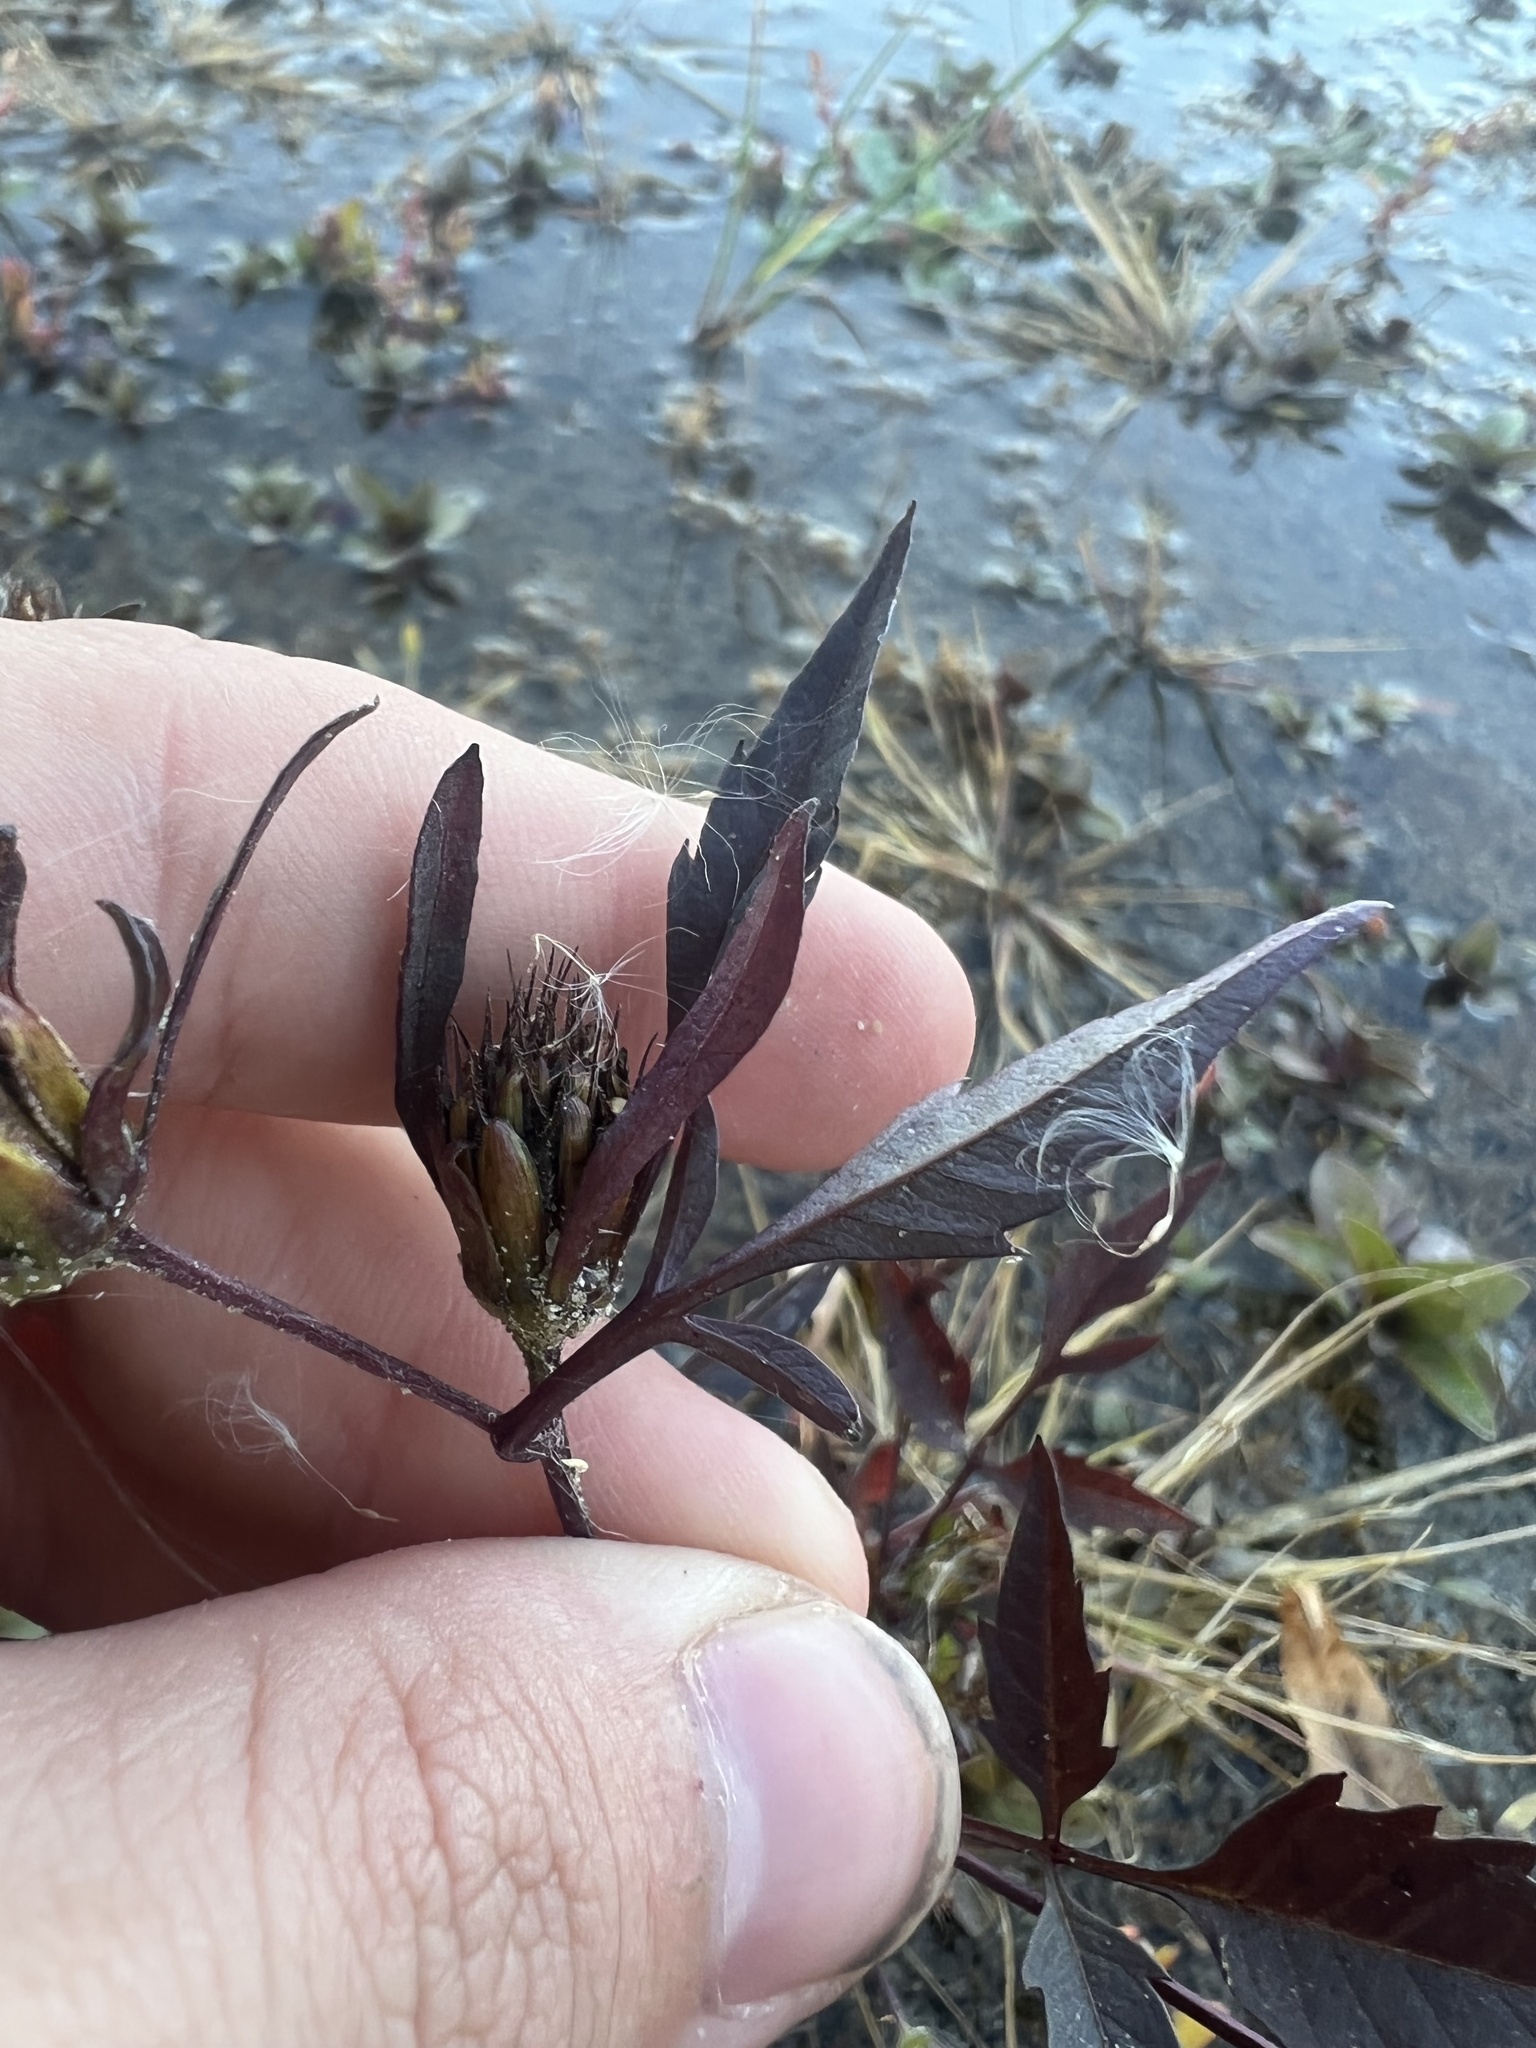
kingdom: Plantae
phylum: Tracheophyta
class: Magnoliopsida
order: Asterales
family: Asteraceae
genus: Bidens
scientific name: Bidens frondosa
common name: Beggarticks
